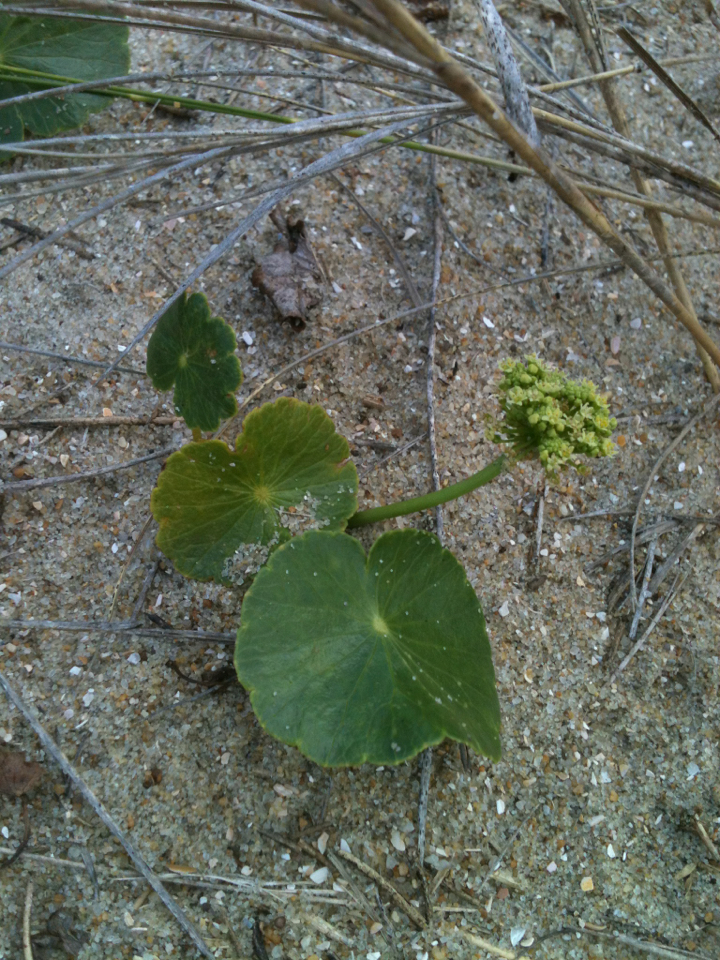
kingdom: Plantae
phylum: Tracheophyta
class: Magnoliopsida
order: Apiales
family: Araliaceae
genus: Hydrocotyle
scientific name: Hydrocotyle bonariensis
